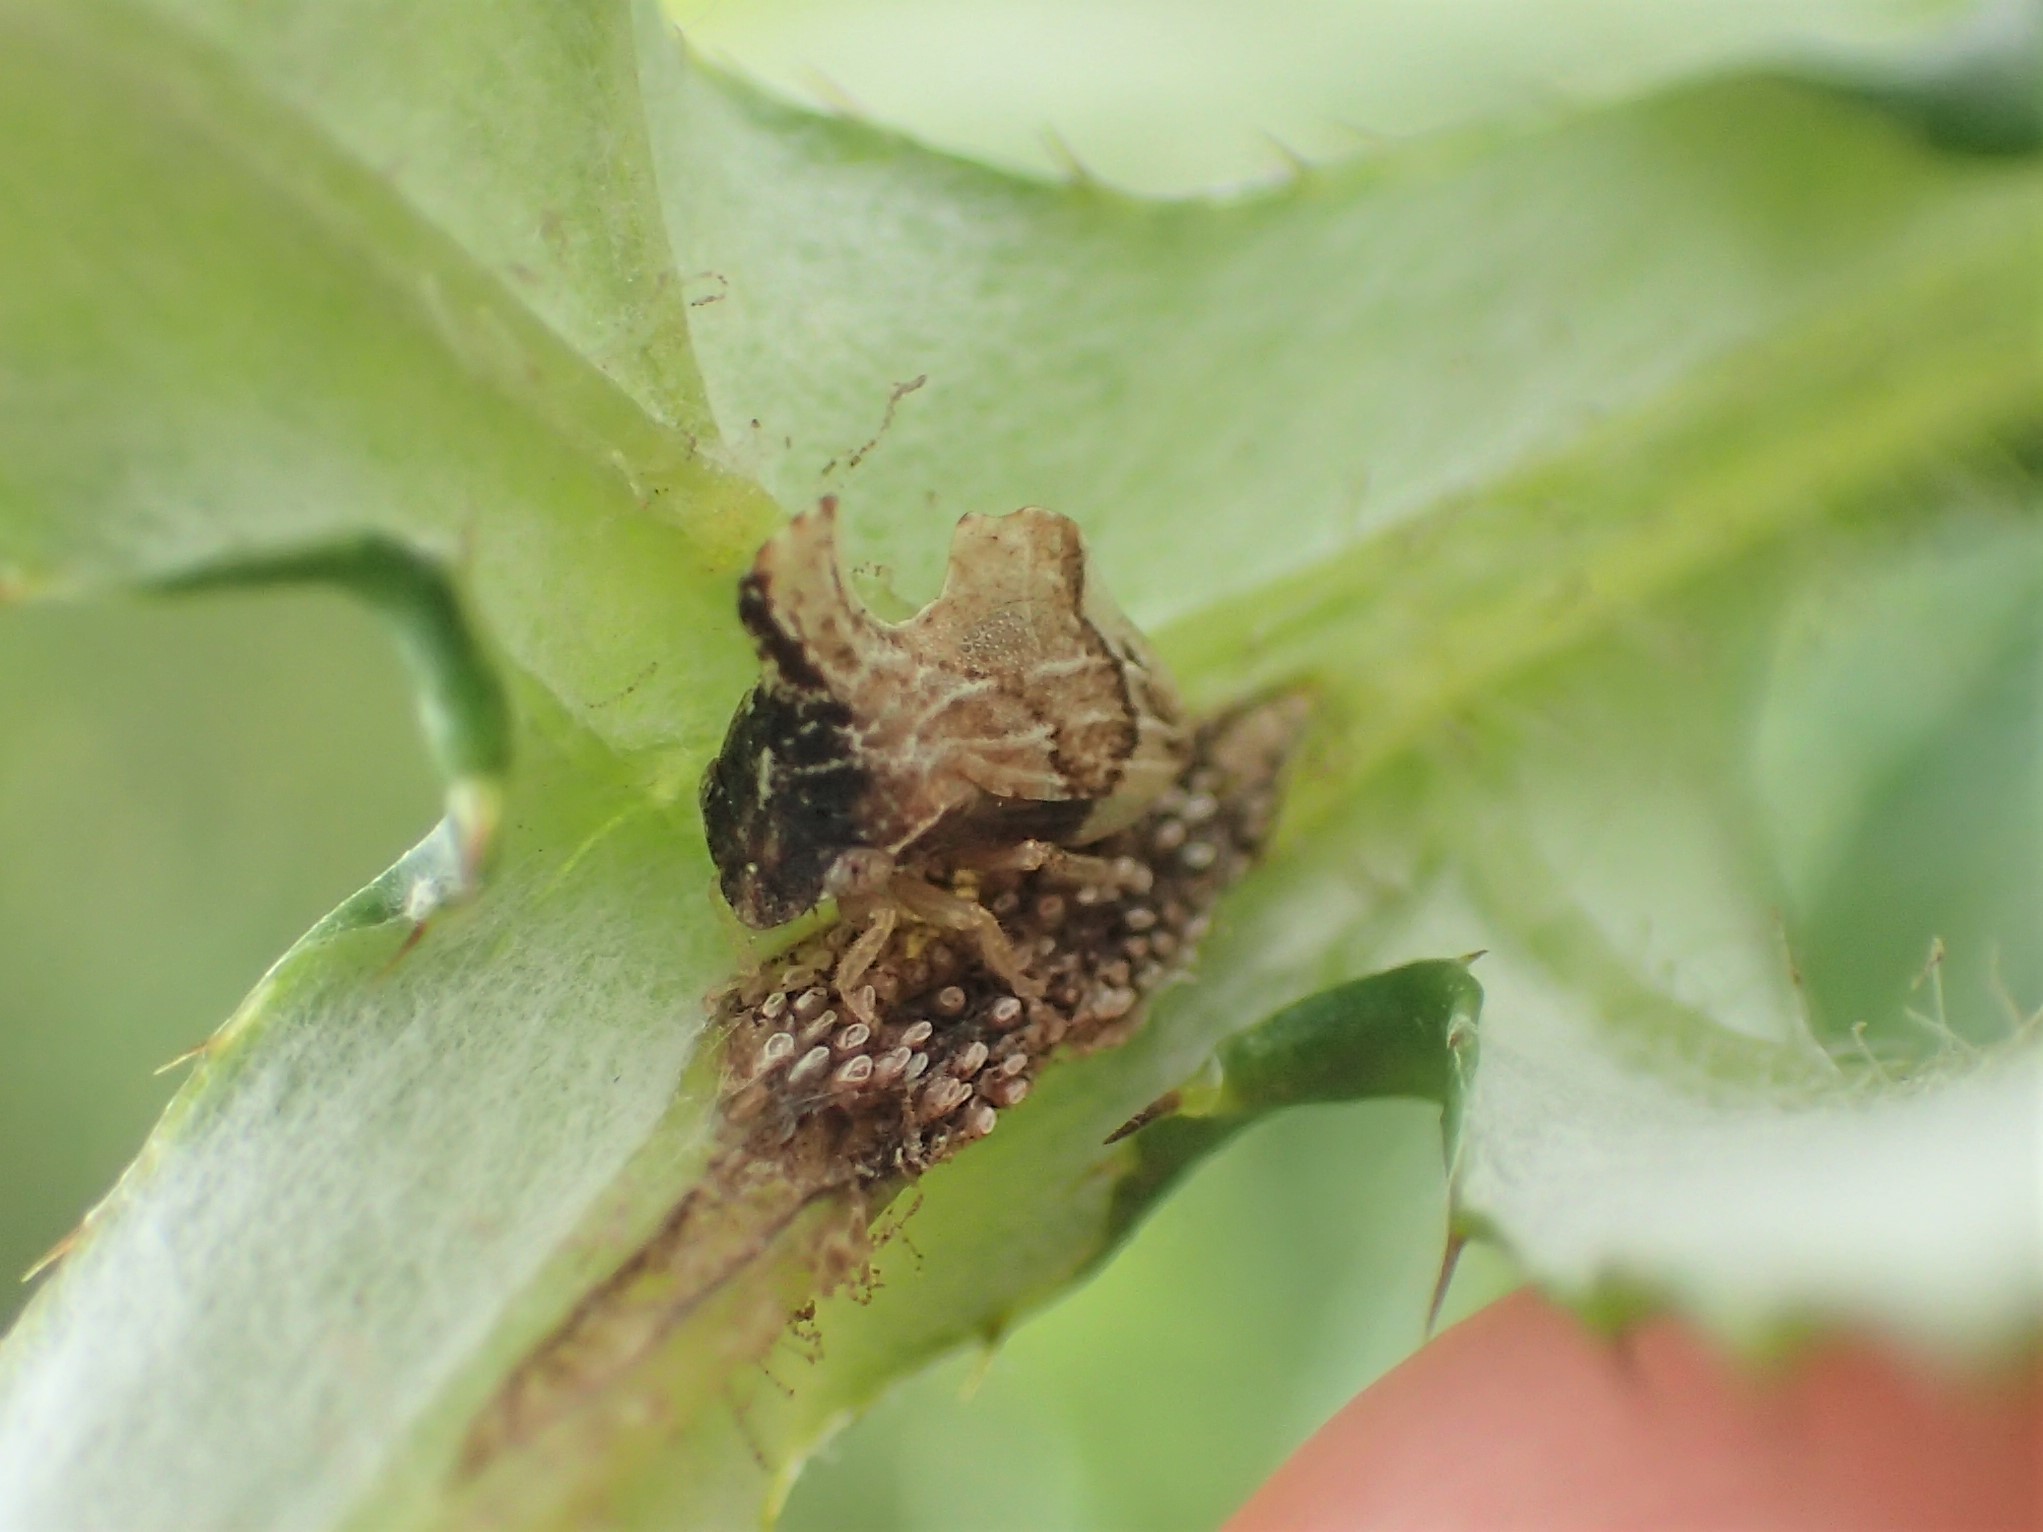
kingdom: Animalia
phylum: Arthropoda
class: Insecta
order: Hemiptera
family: Membracidae
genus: Entylia
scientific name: Entylia carinata
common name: Keeled treehopper
